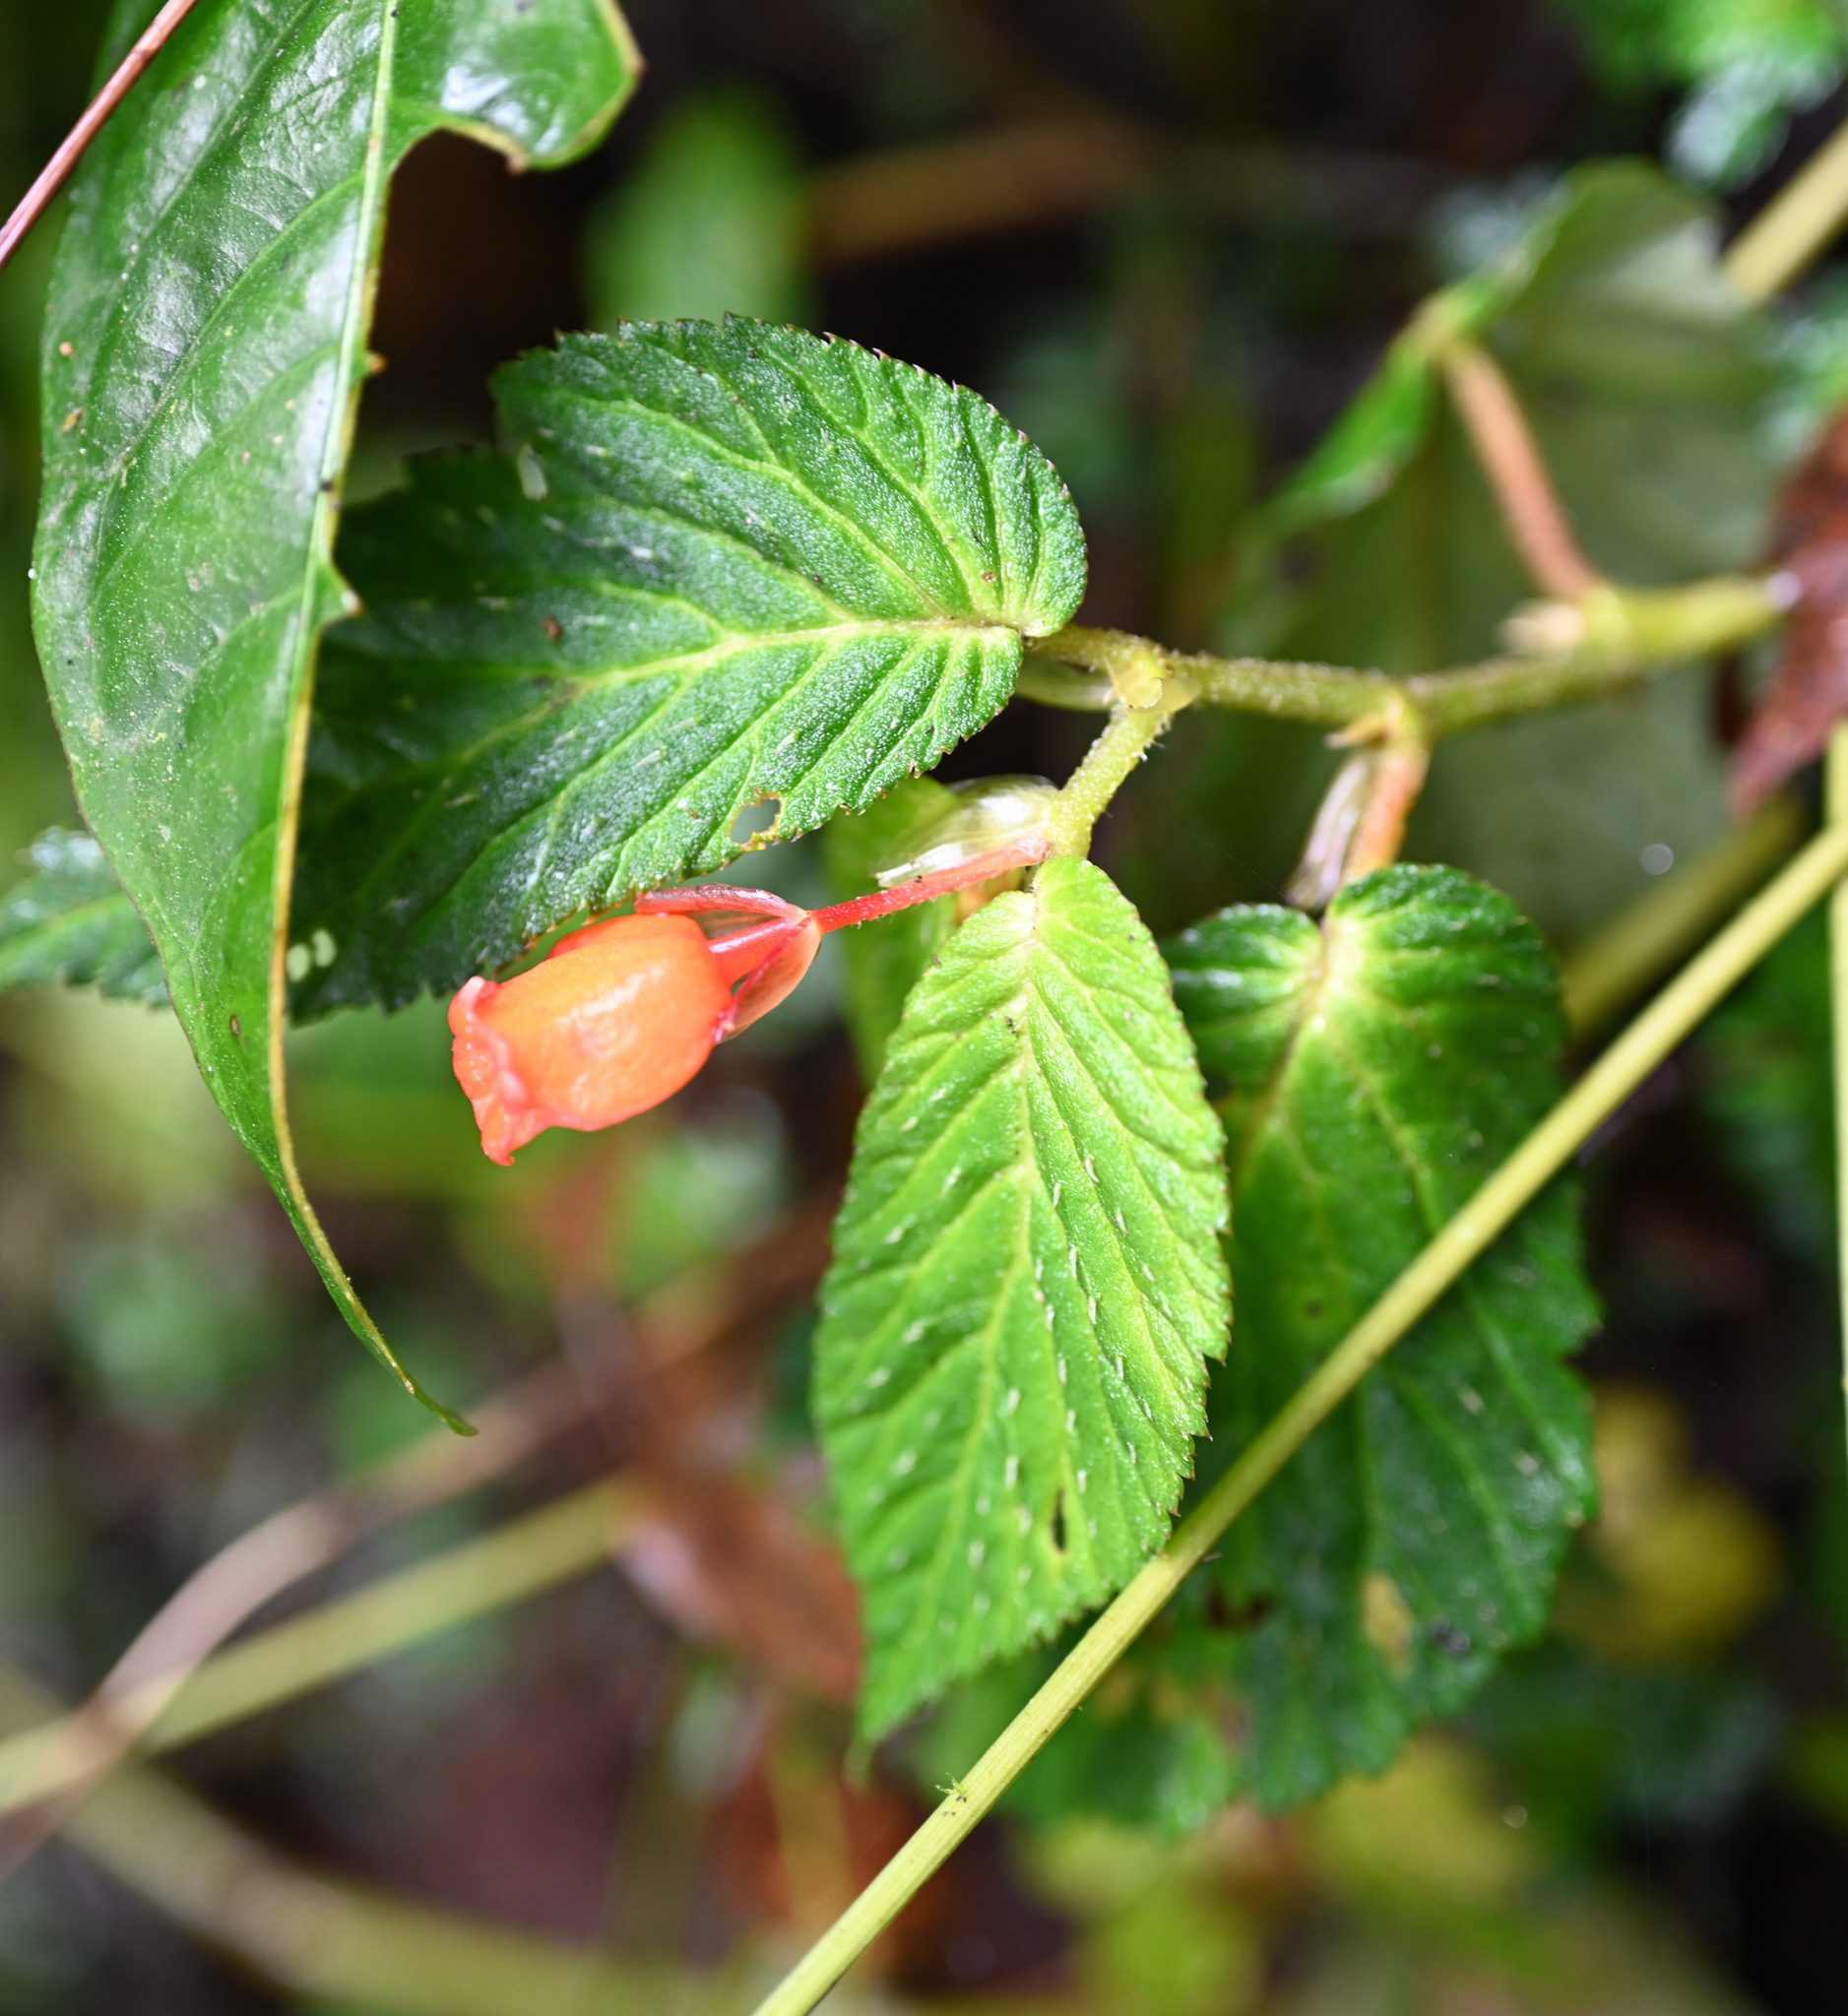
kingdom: Plantae
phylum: Tracheophyta
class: Magnoliopsida
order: Cucurbitales
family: Begoniaceae
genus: Begonia
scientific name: Begonia longirostris
